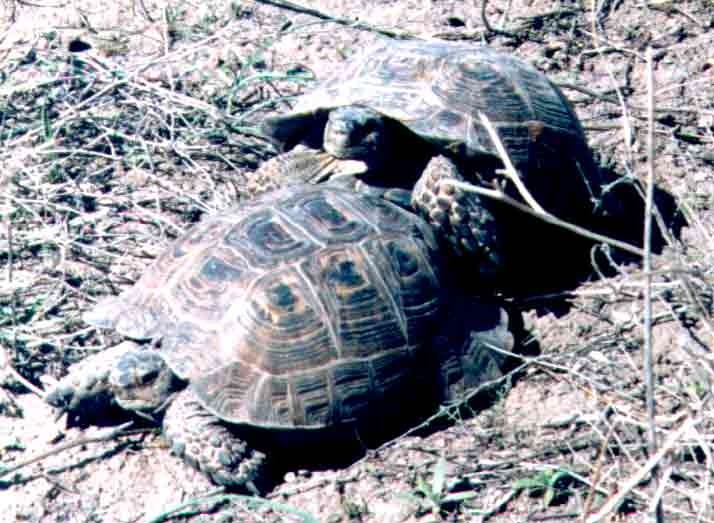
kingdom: Animalia
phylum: Chordata
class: Testudines
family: Testudinidae
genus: Testudo
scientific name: Testudo graeca
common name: Common tortoise
